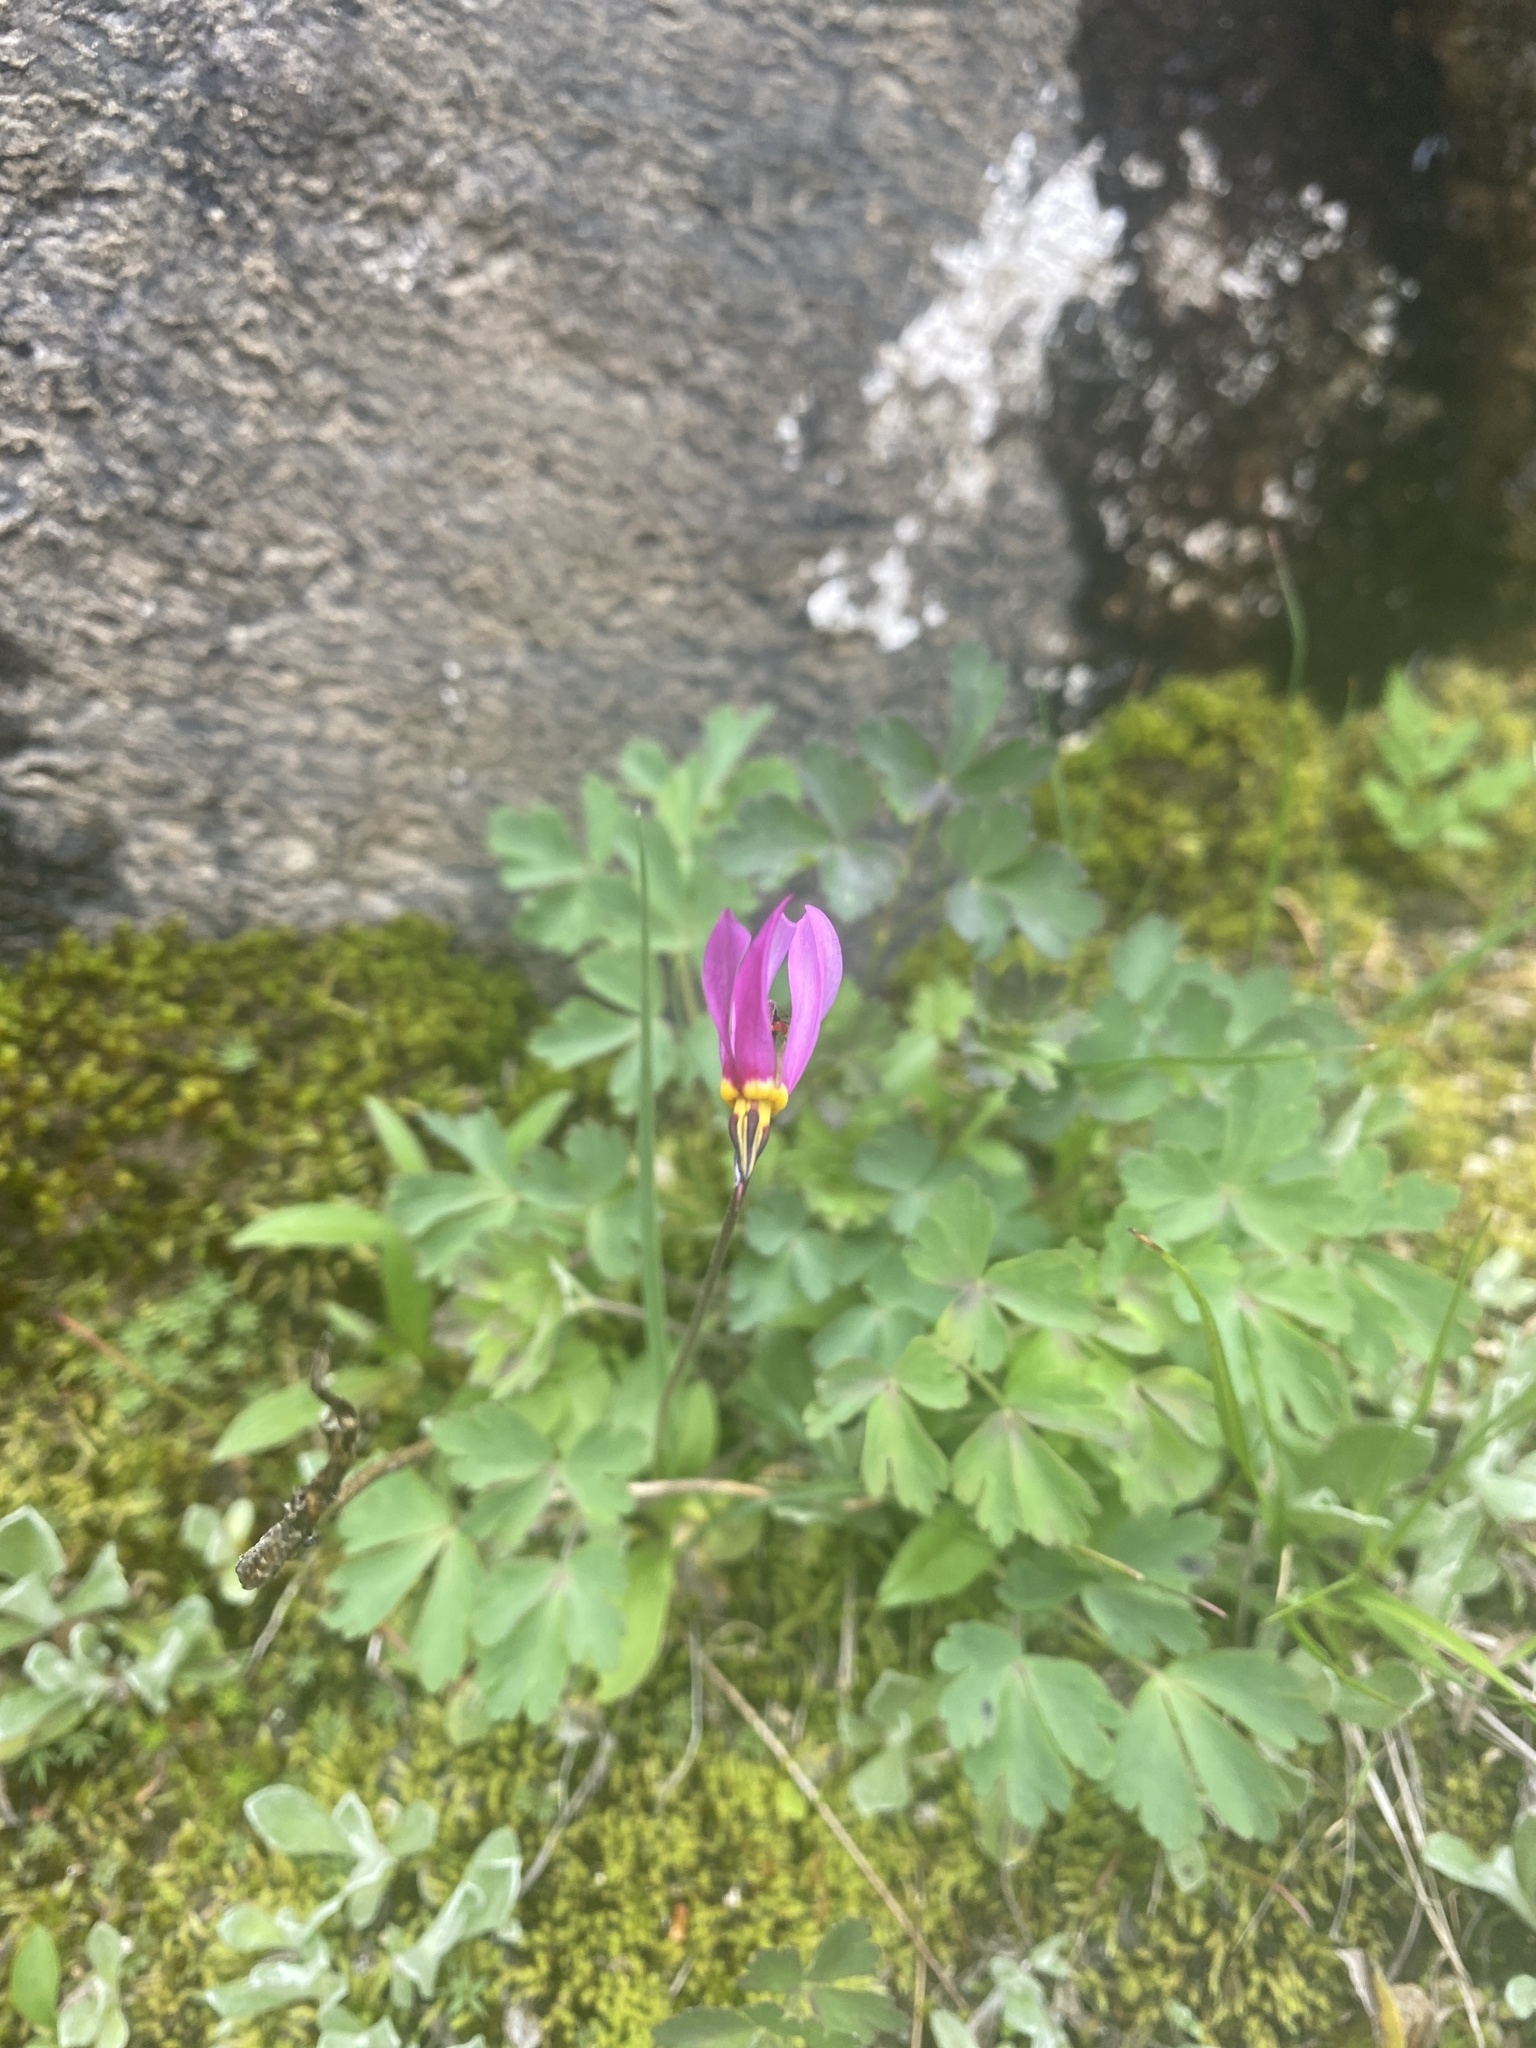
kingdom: Plantae
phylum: Tracheophyta
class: Magnoliopsida
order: Ericales
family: Primulaceae
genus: Dodecatheon
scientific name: Dodecatheon pulchellum
